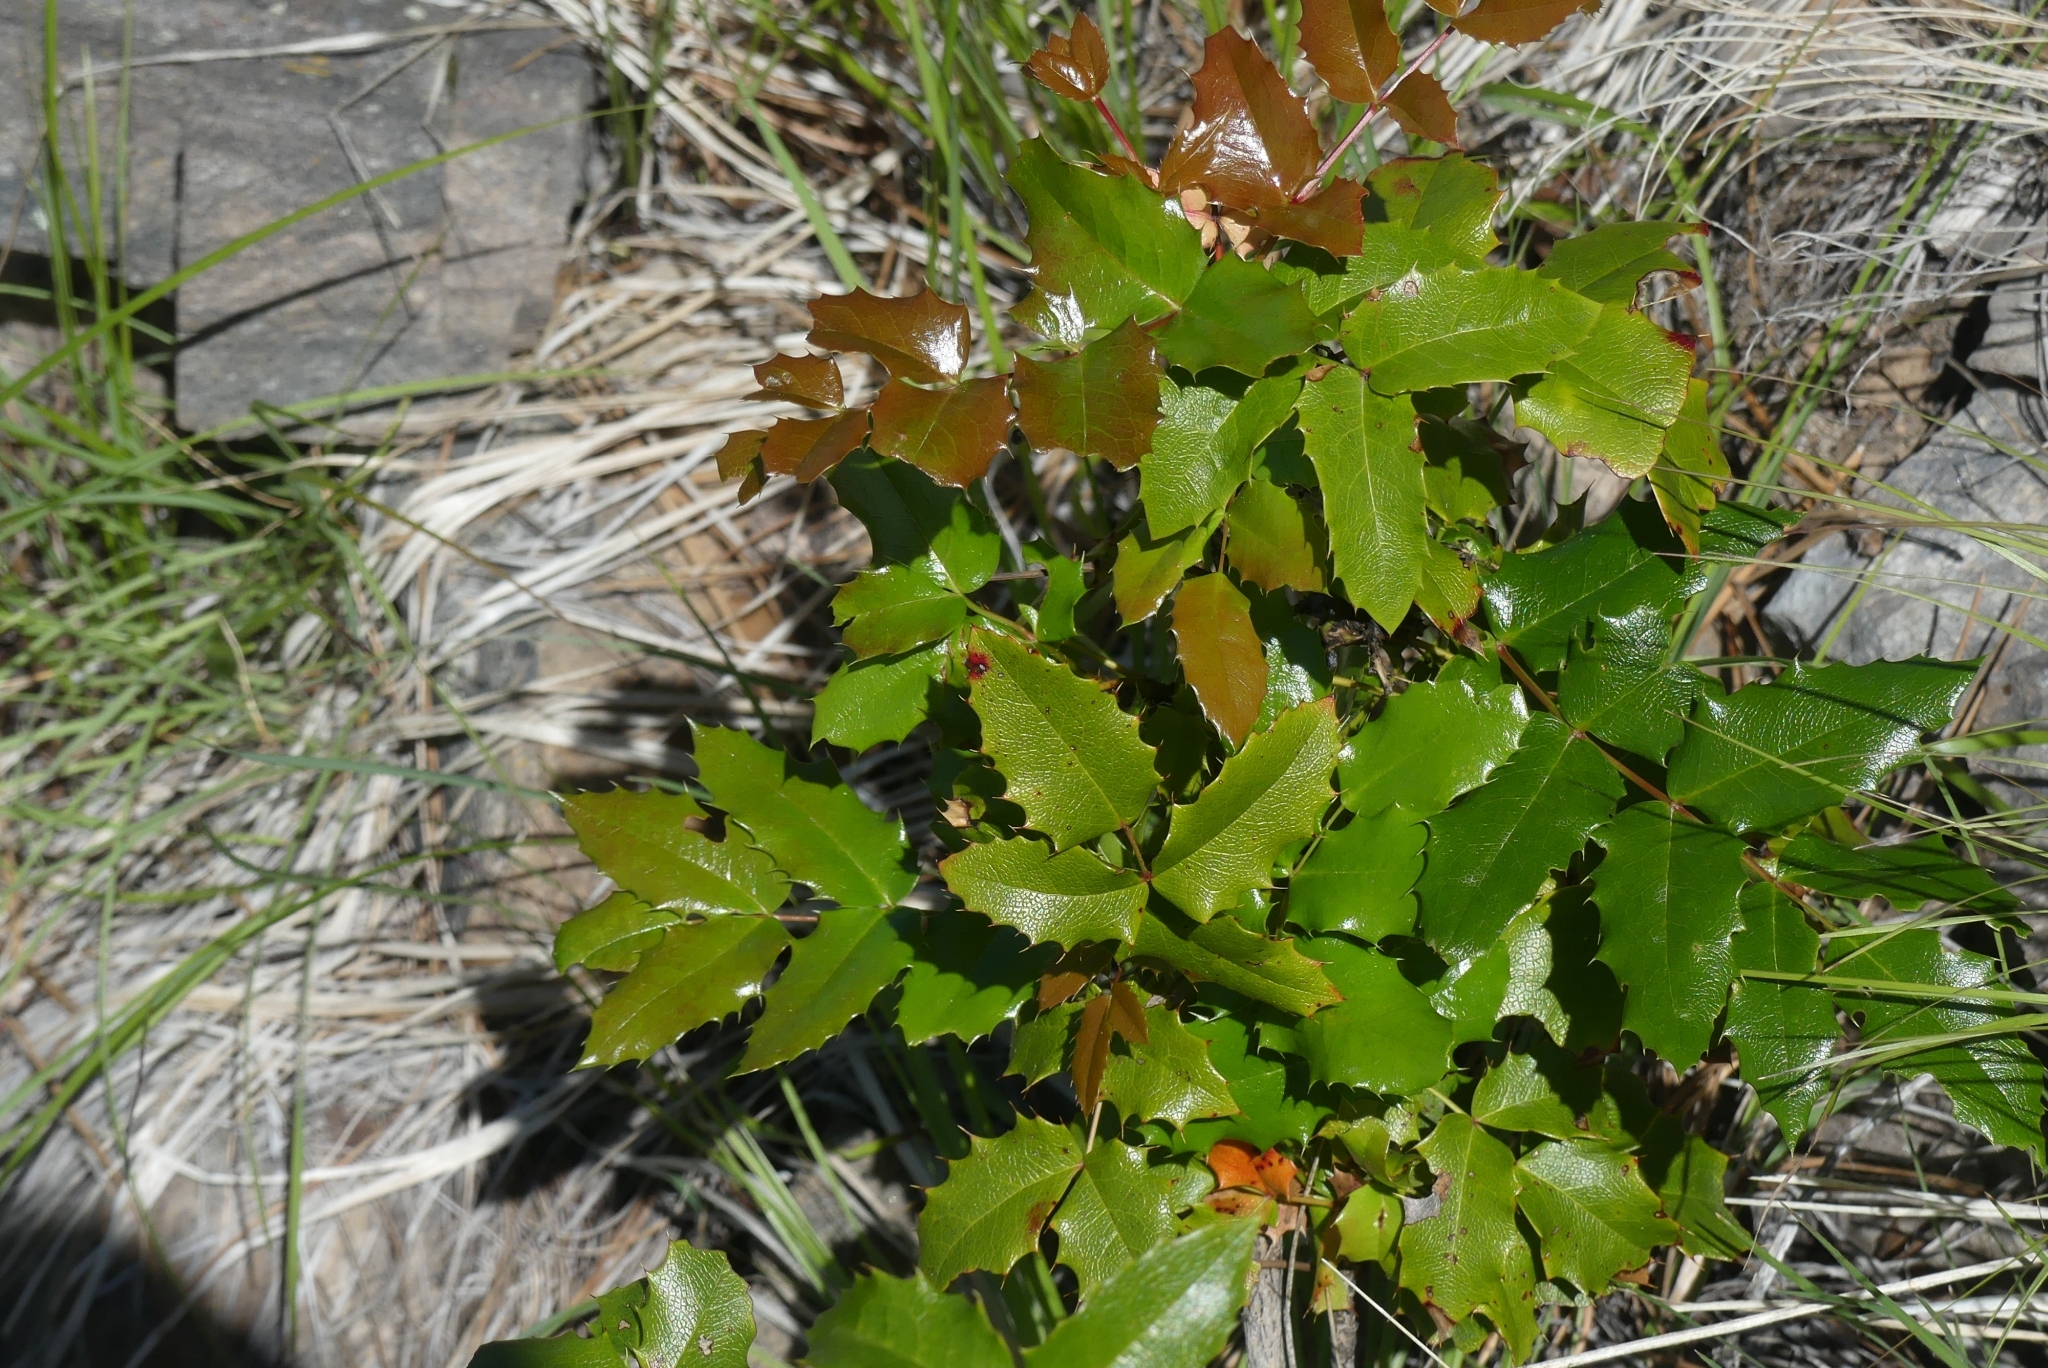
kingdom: Plantae
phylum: Tracheophyta
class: Magnoliopsida
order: Ranunculales
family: Berberidaceae
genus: Mahonia
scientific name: Mahonia aquifolium
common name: Oregon-grape
